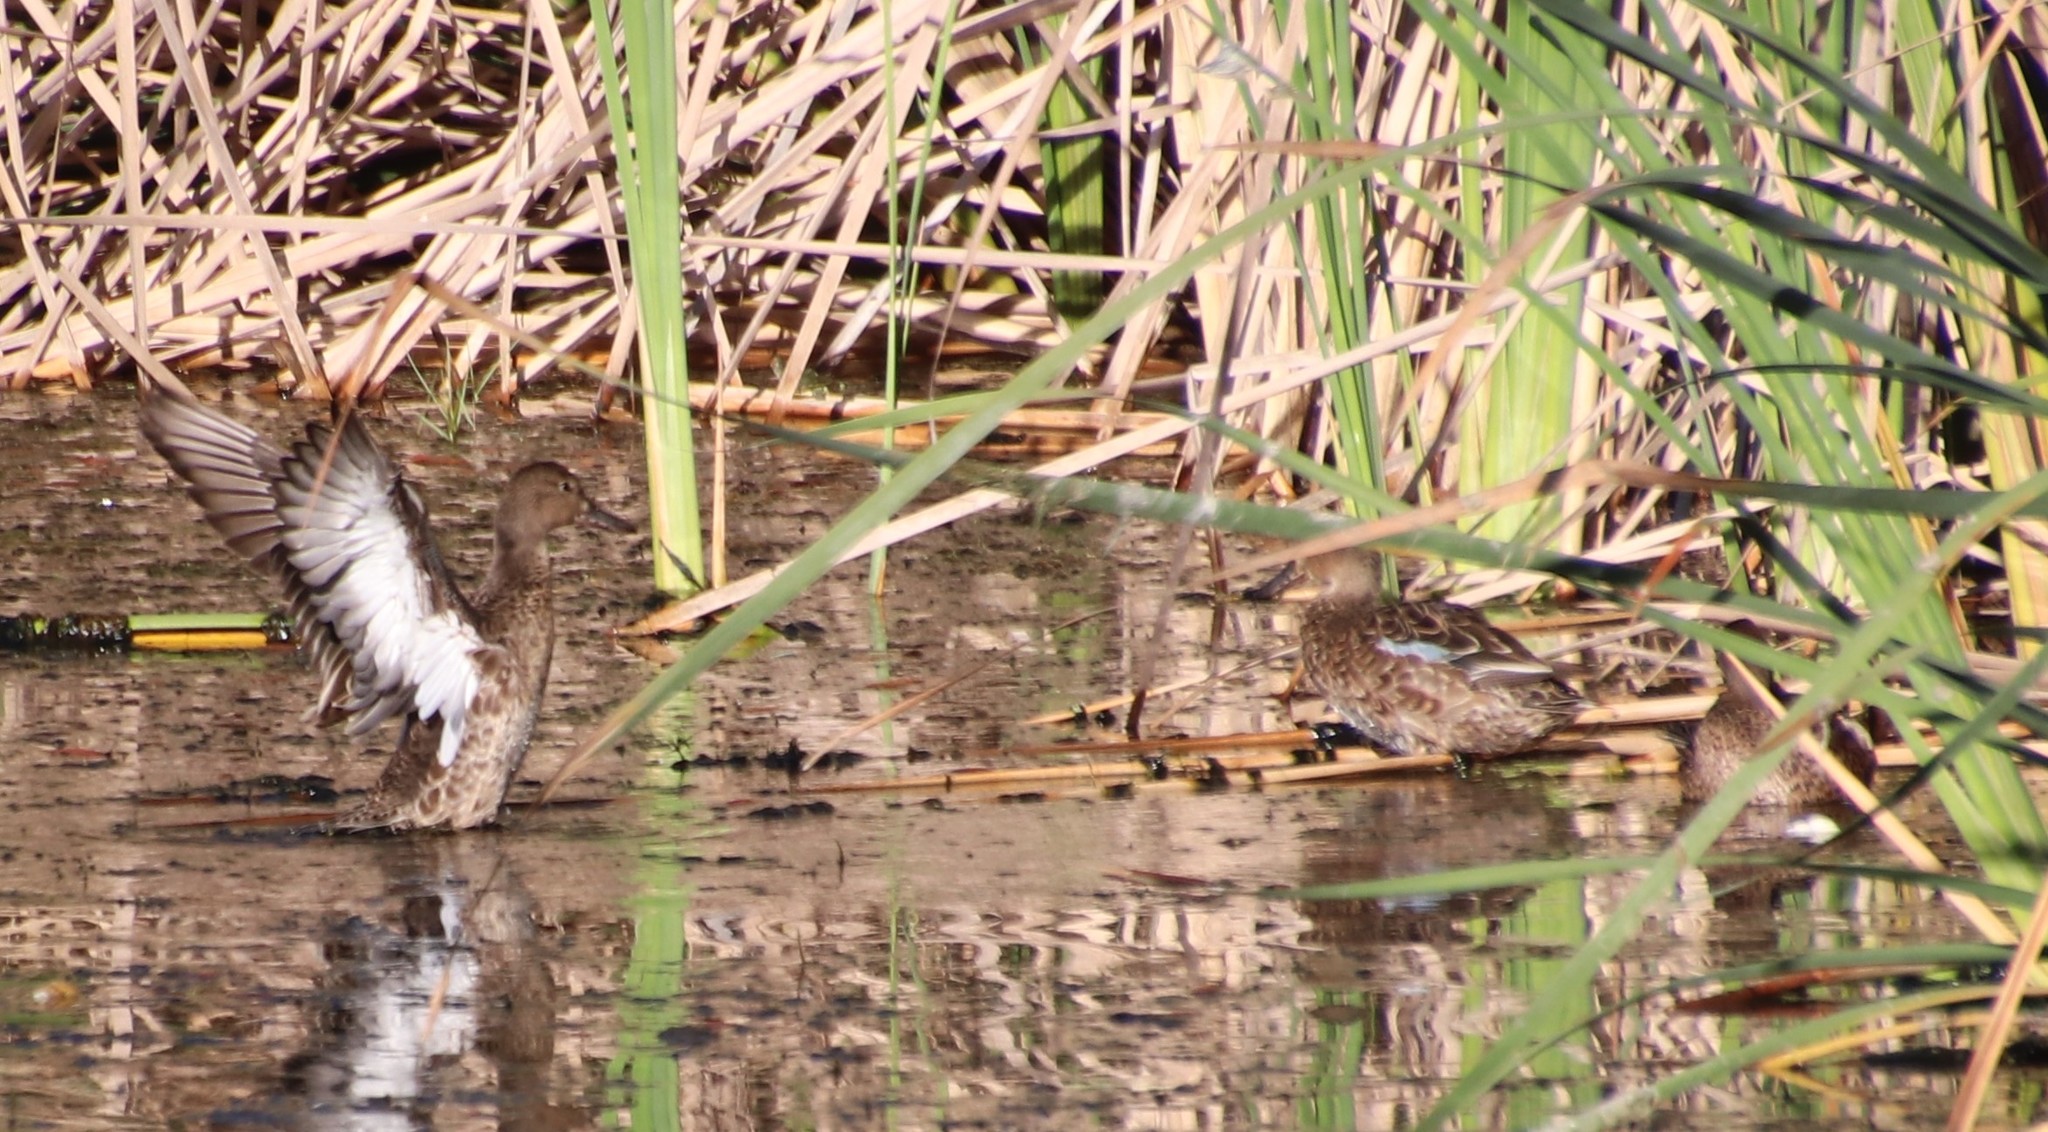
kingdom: Animalia
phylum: Chordata
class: Aves
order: Anseriformes
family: Anatidae
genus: Spatula
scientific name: Spatula cyanoptera
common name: Cinnamon teal
